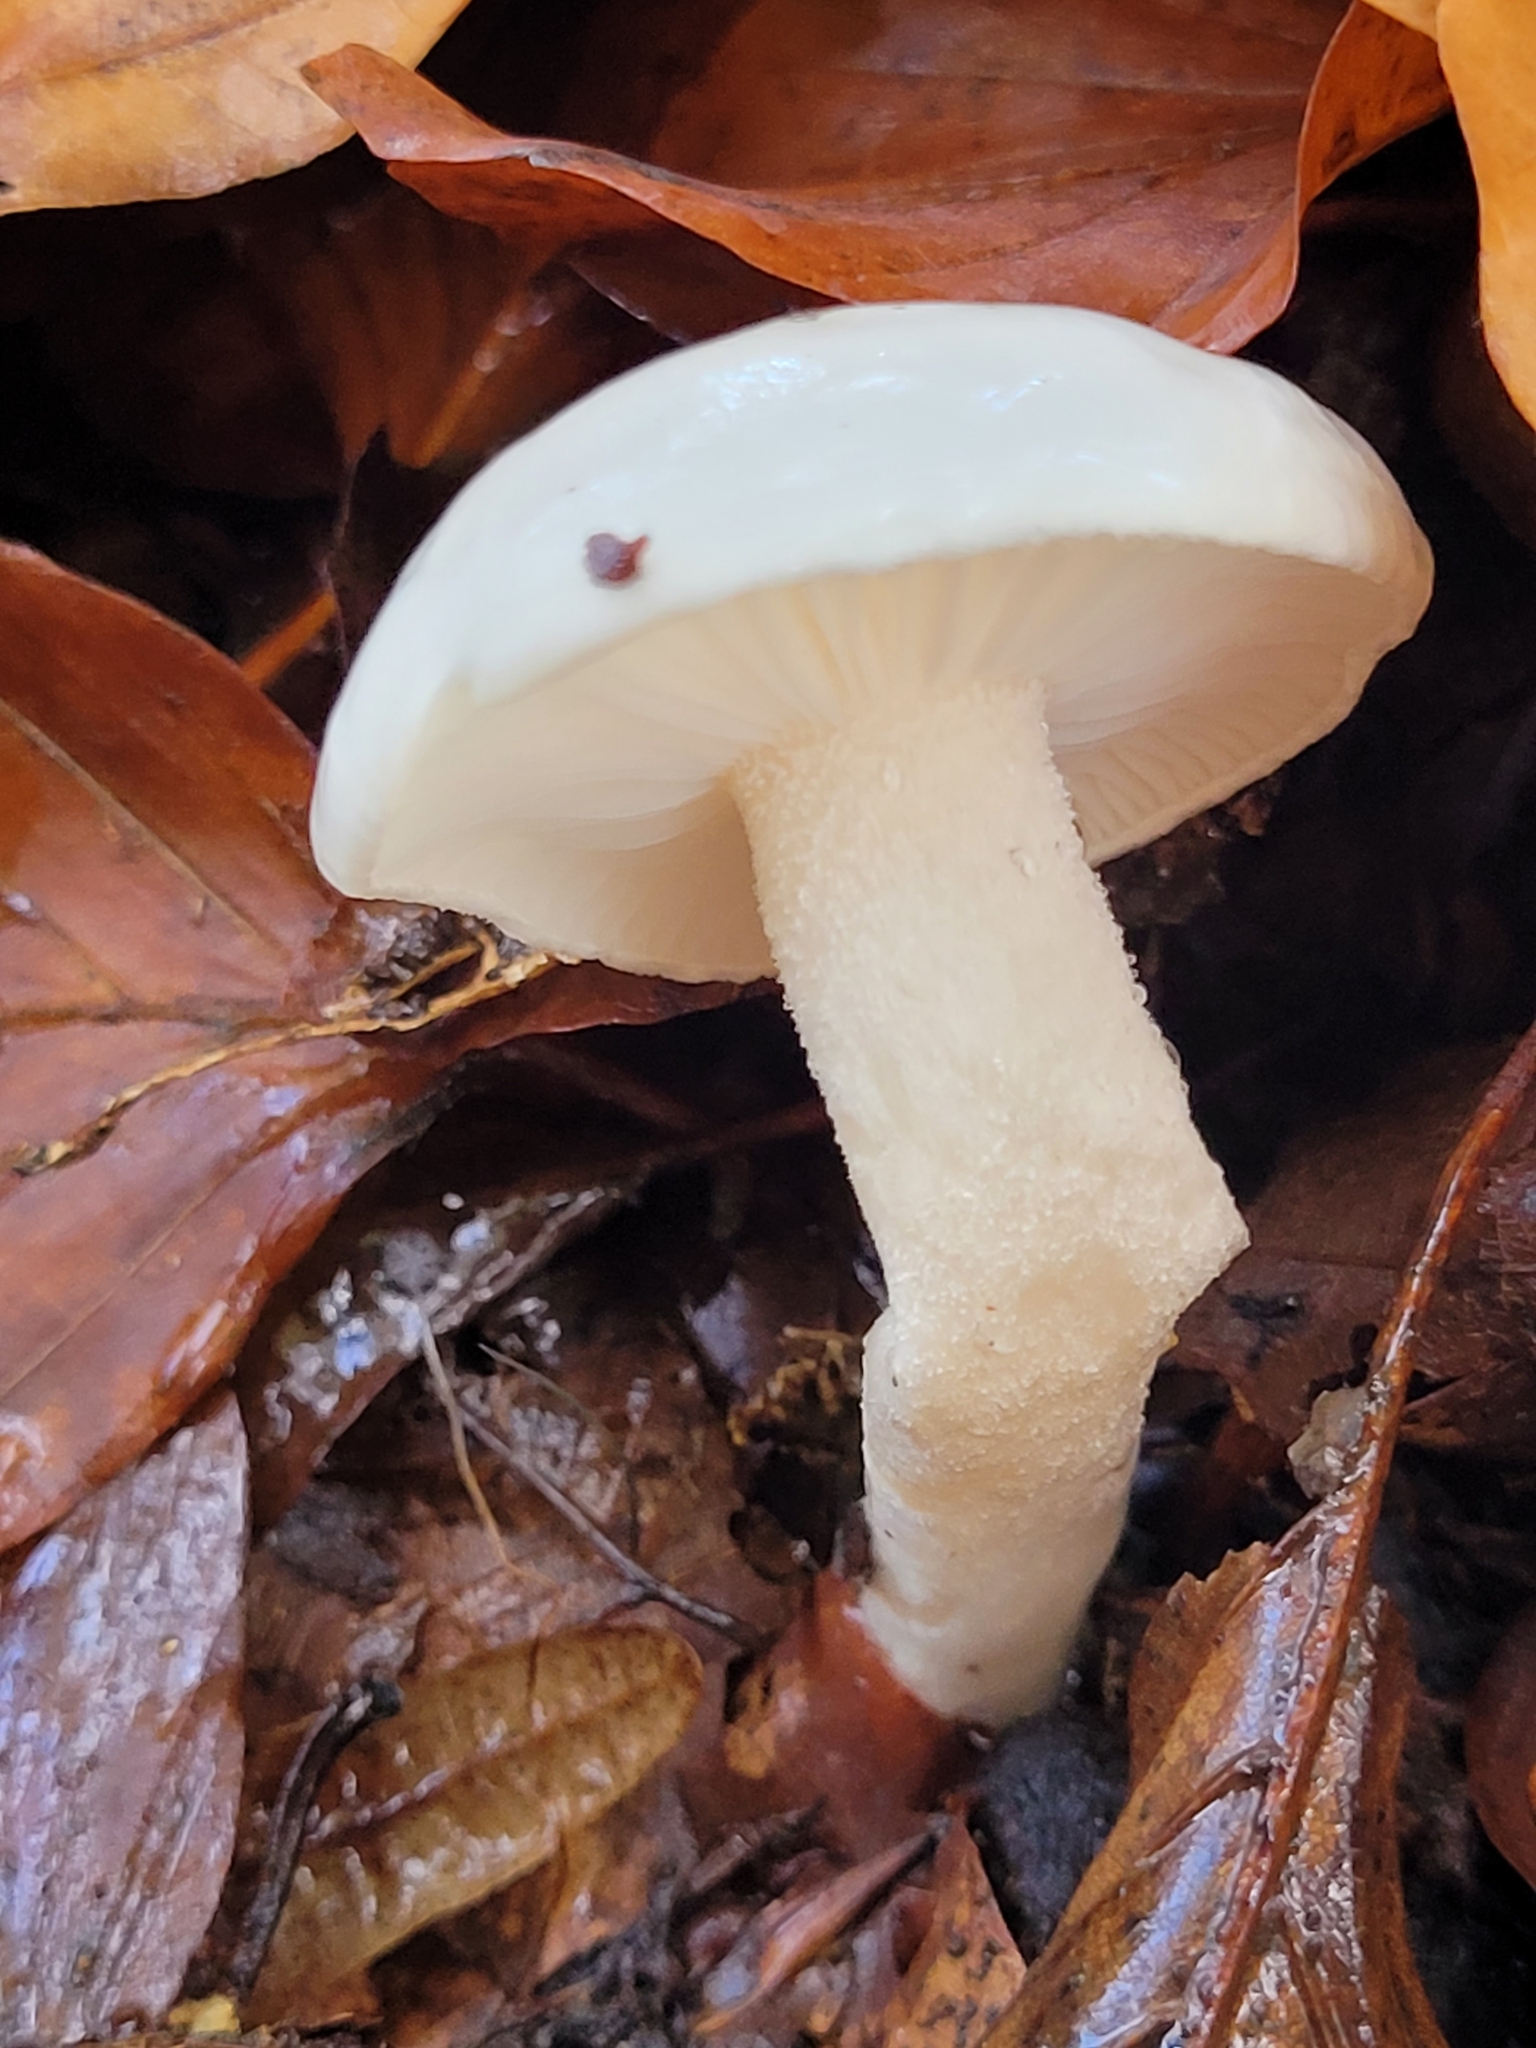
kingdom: Fungi
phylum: Basidiomycota
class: Agaricomycetes
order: Agaricales
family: Hygrophoraceae
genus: Hygrophorus
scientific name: Hygrophorus eburneus
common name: Ivory wax-cap
